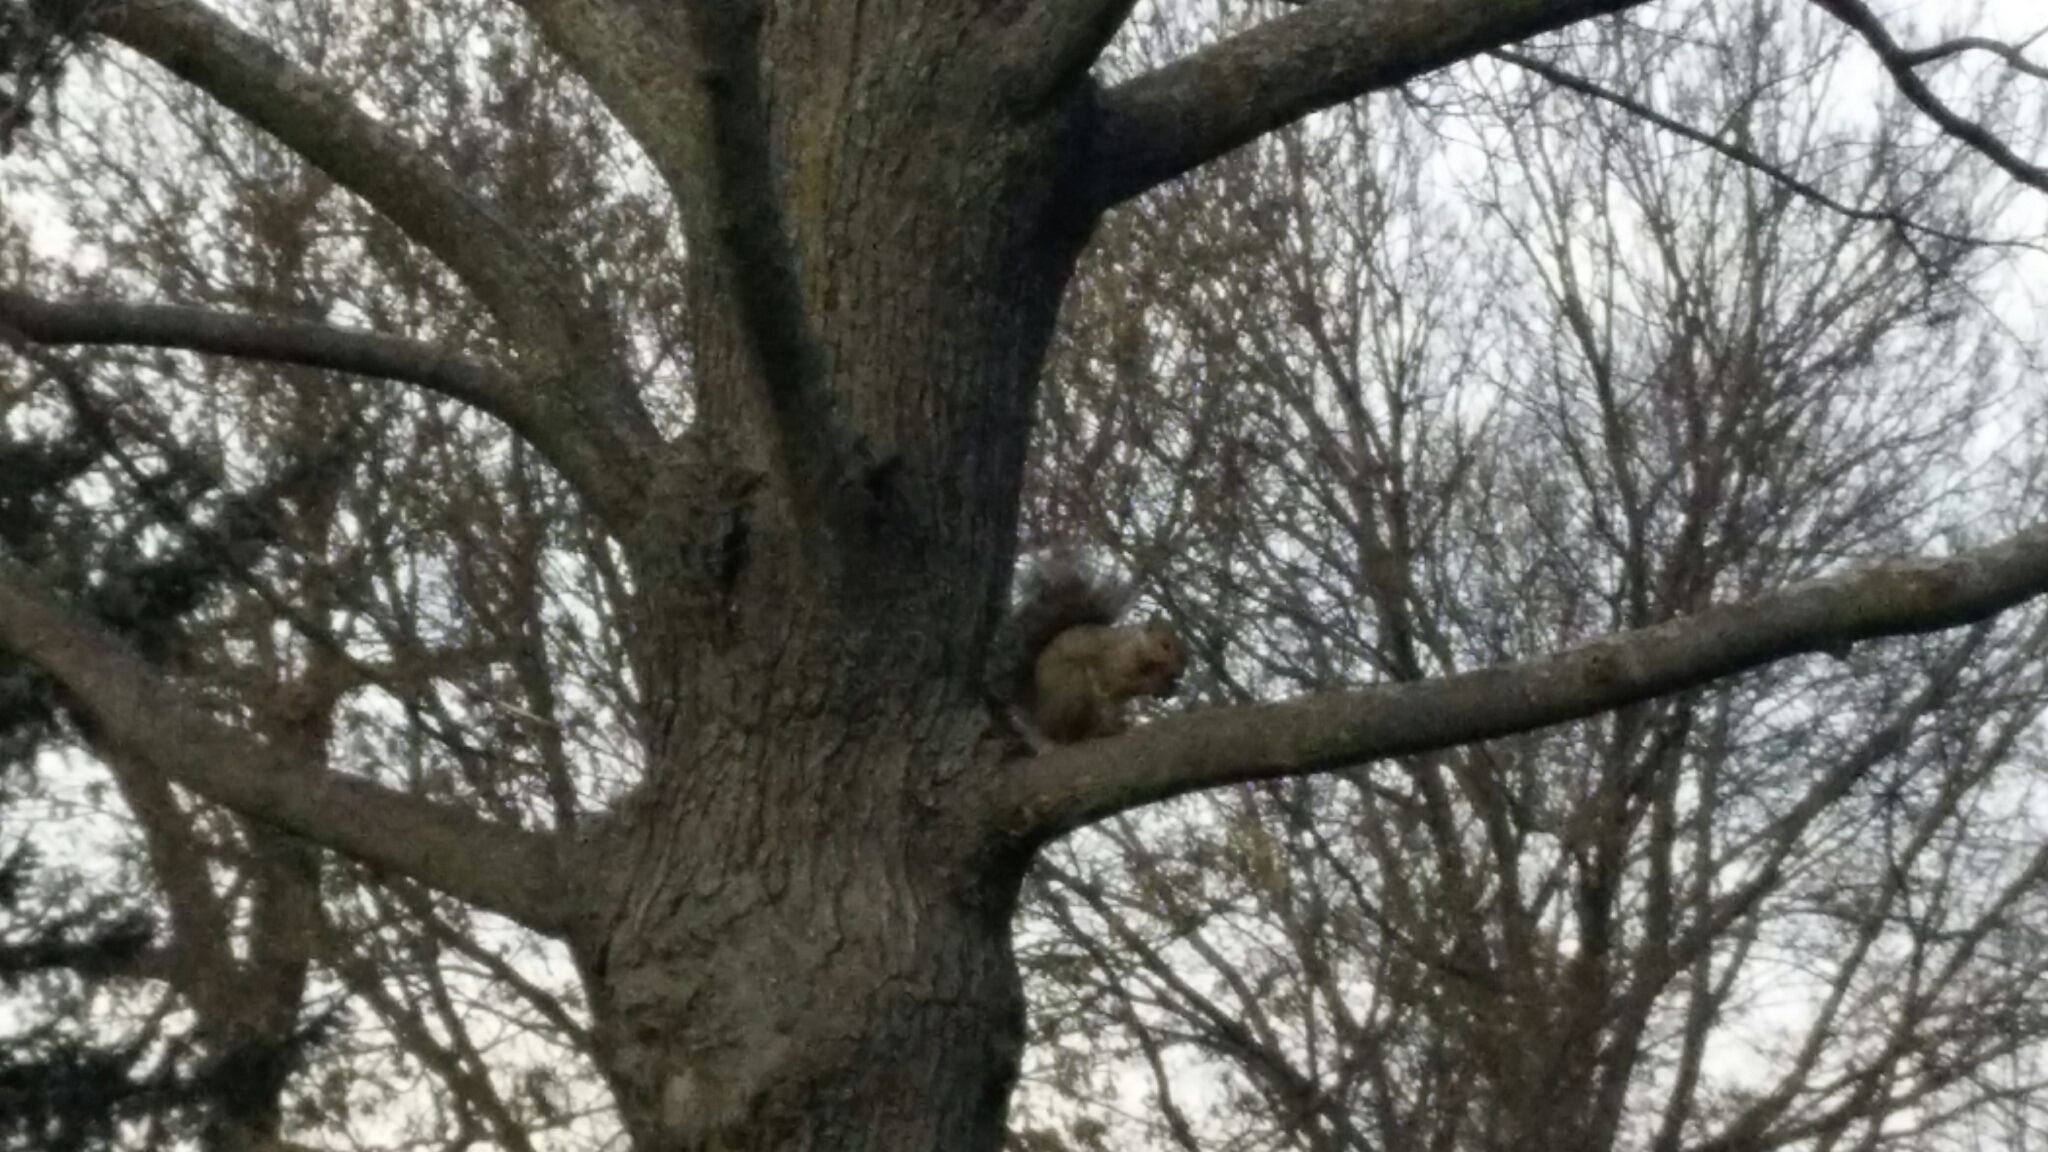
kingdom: Animalia
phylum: Chordata
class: Mammalia
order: Rodentia
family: Sciuridae
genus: Sciurus
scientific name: Sciurus carolinensis
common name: Eastern gray squirrel
